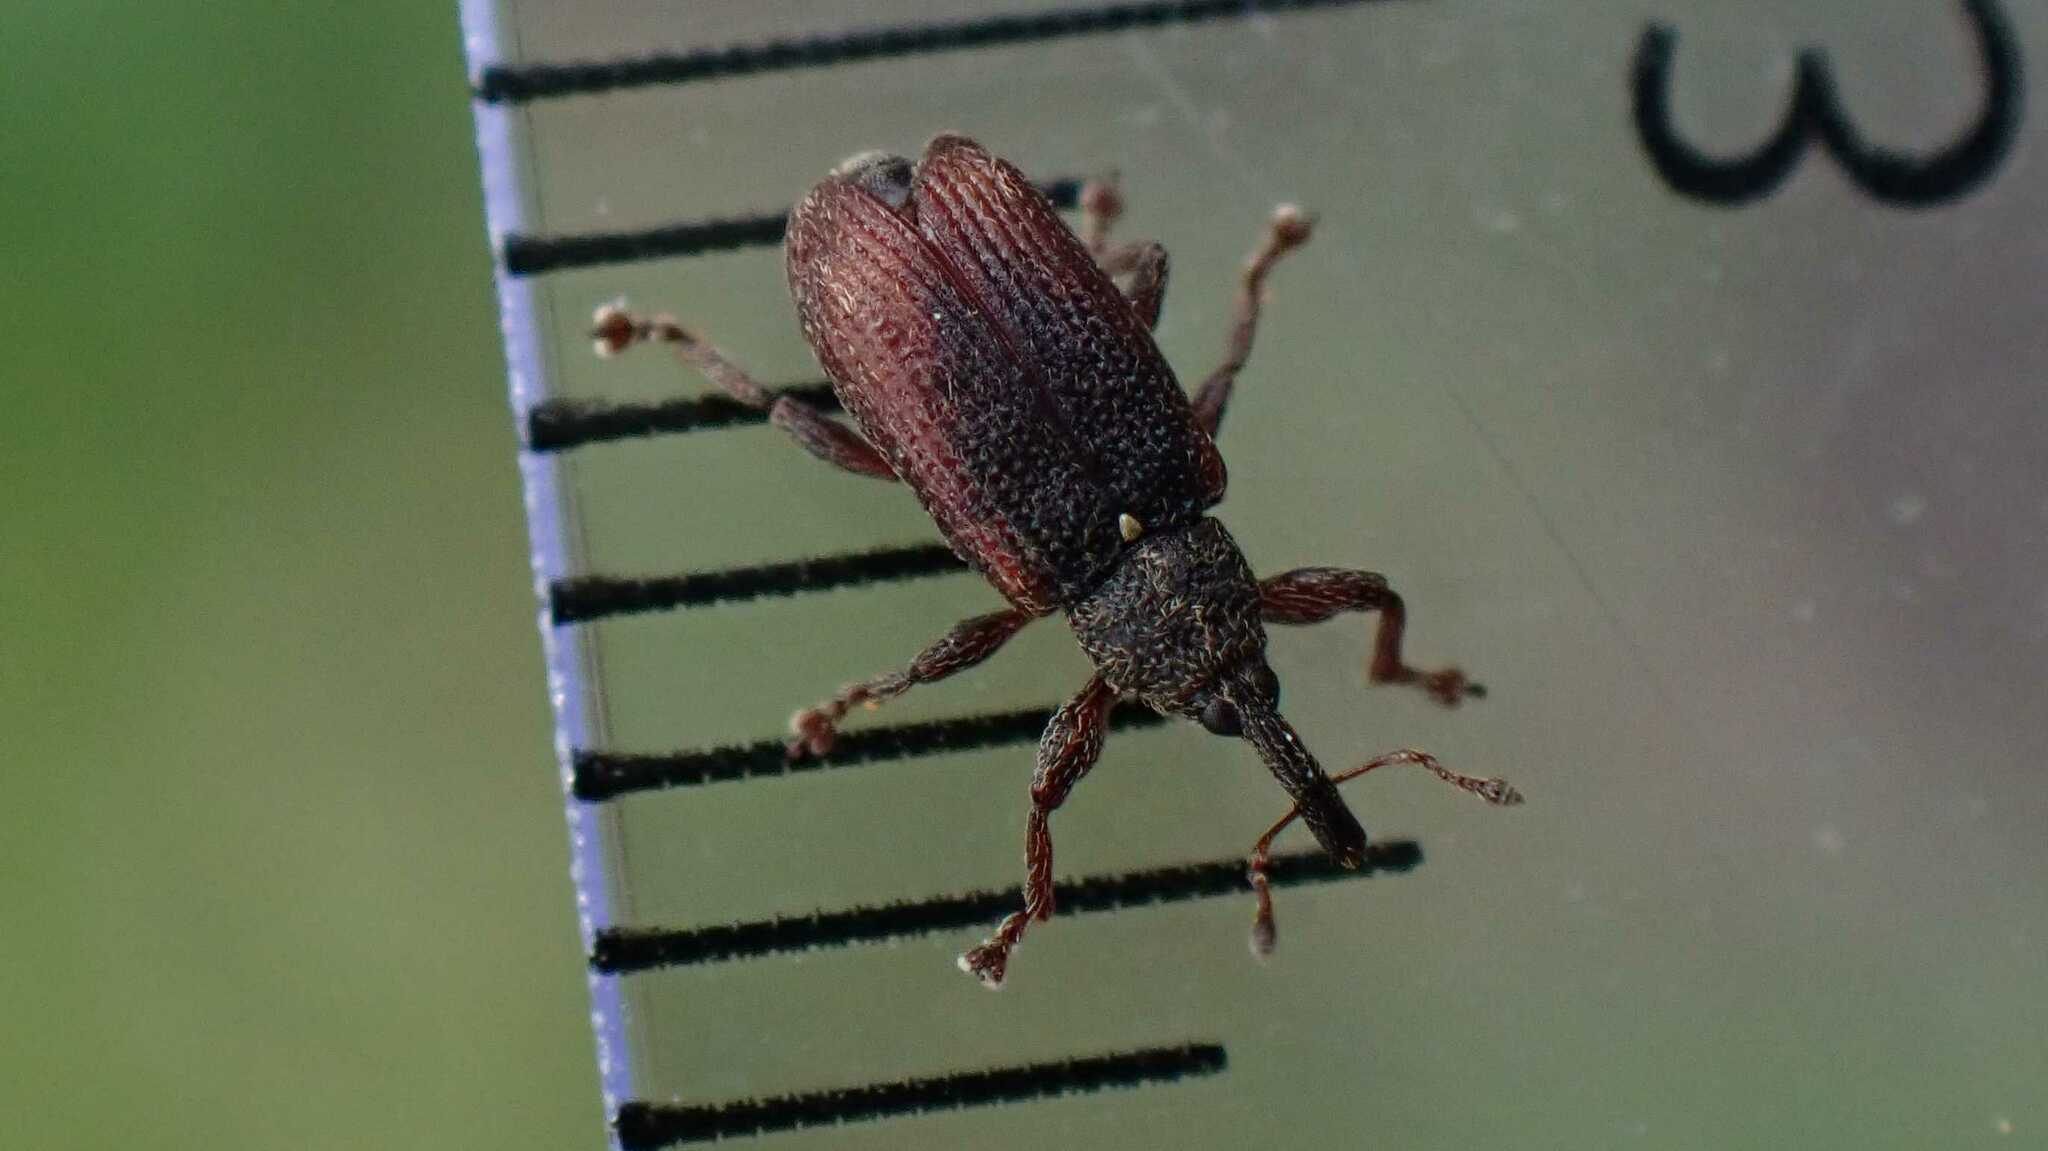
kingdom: Animalia
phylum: Arthropoda
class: Insecta
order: Coleoptera
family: Curculionidae
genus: Bradybatus
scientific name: Bradybatus kellneri
